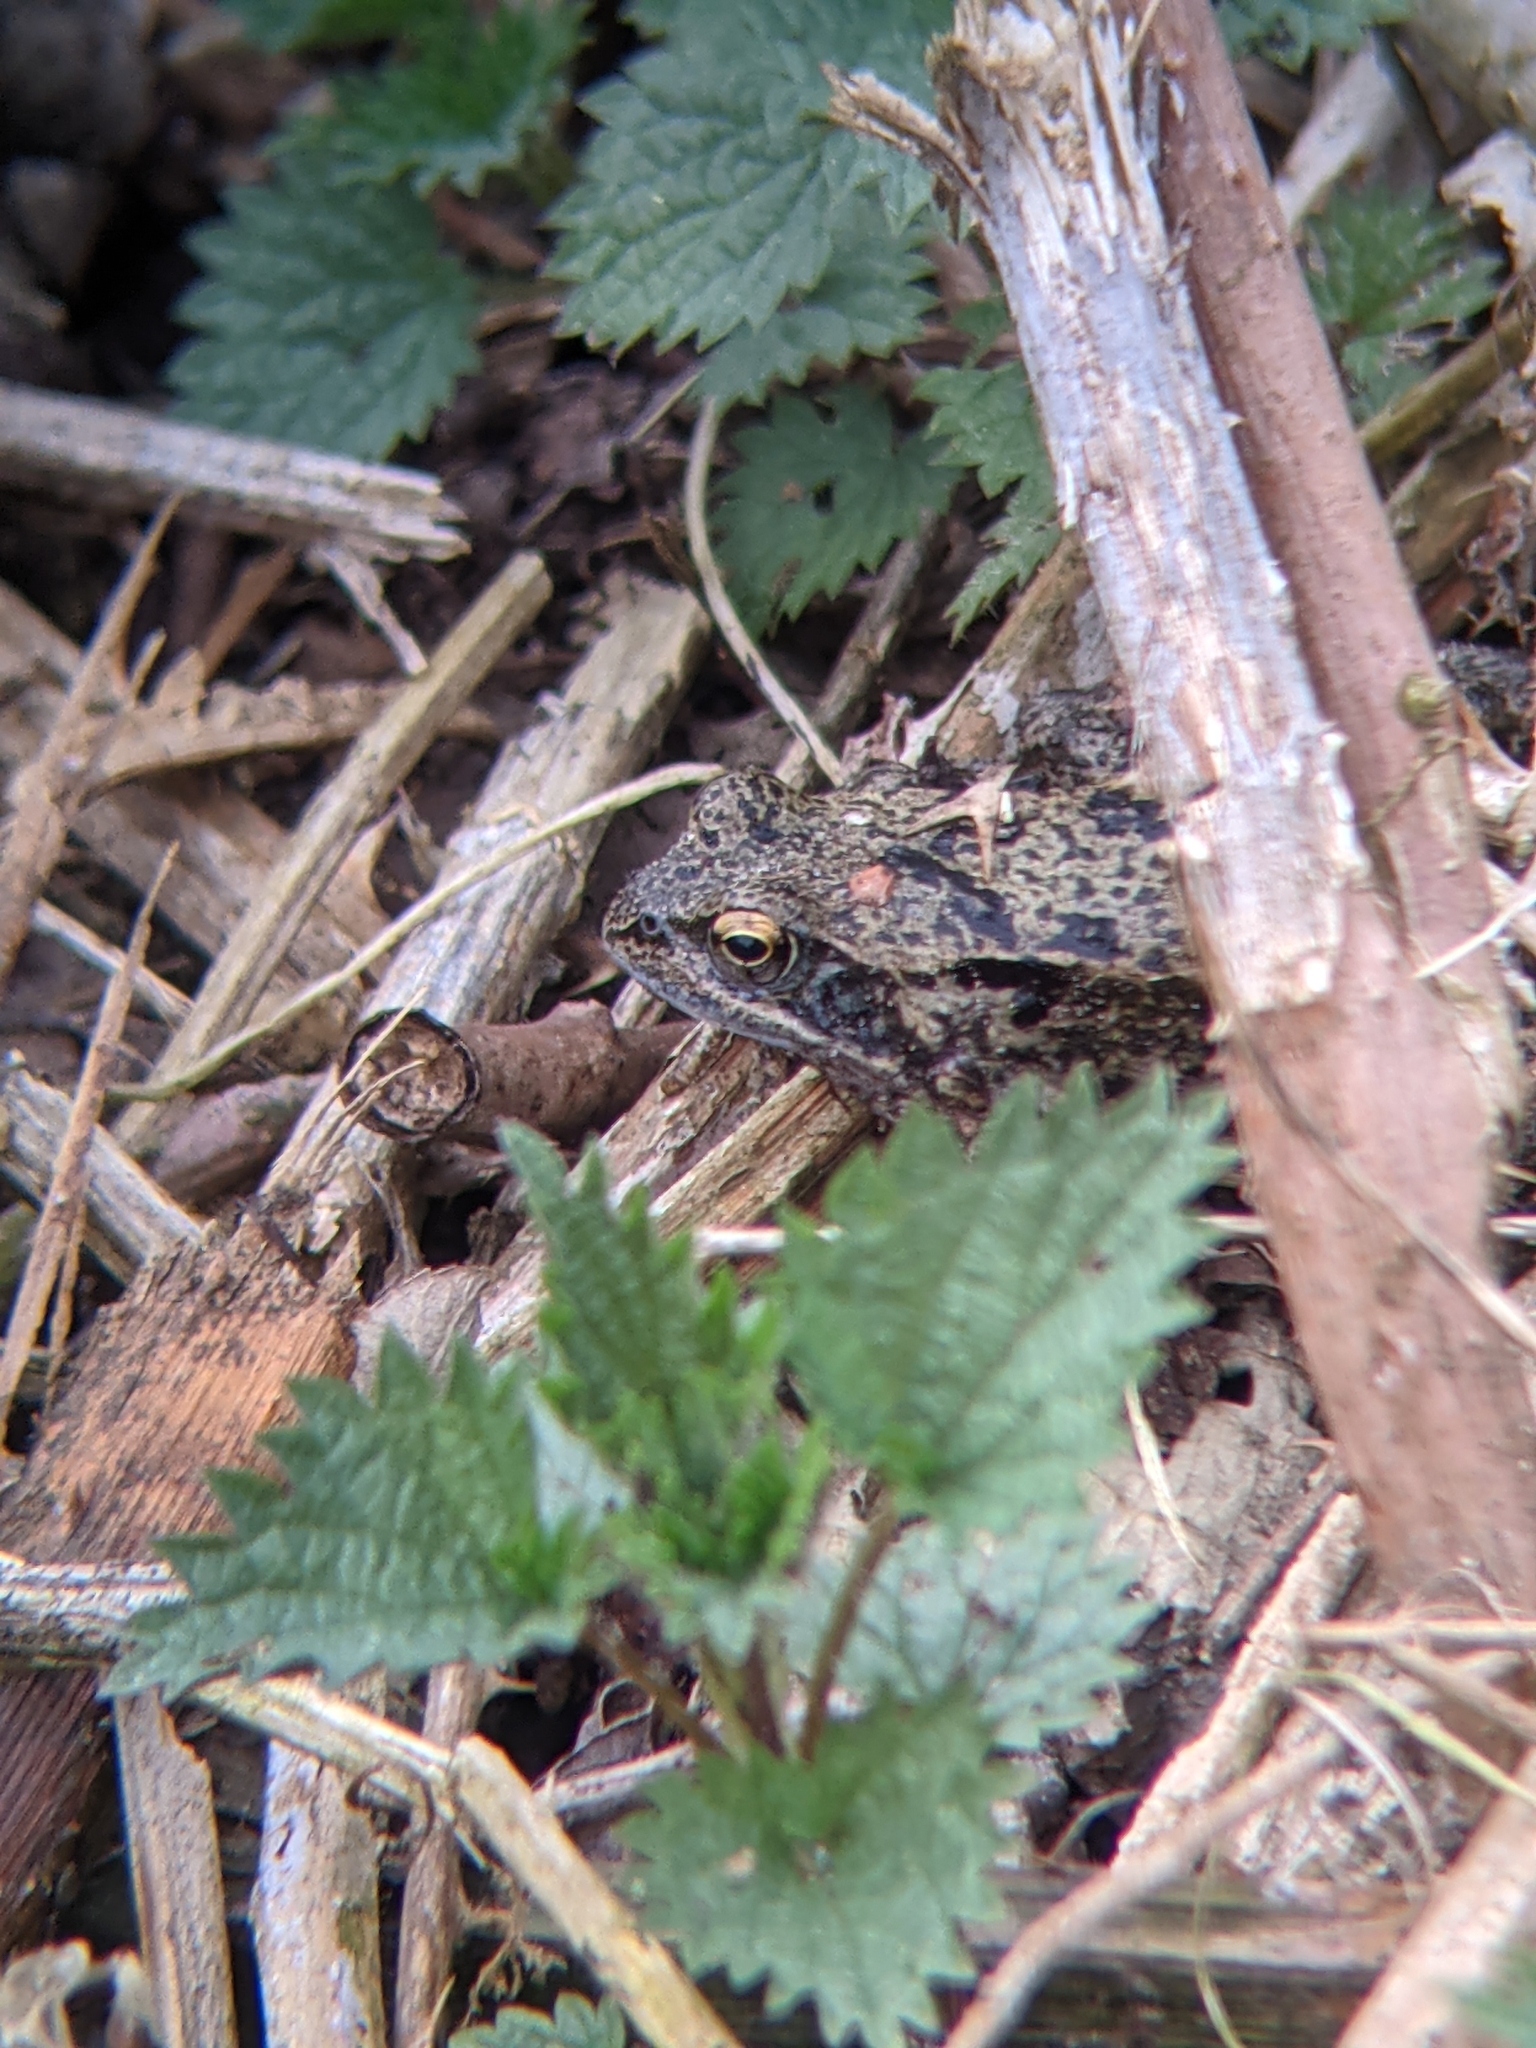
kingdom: Animalia
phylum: Chordata
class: Amphibia
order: Anura
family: Ranidae
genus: Rana
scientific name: Rana temporaria
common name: Common frog
